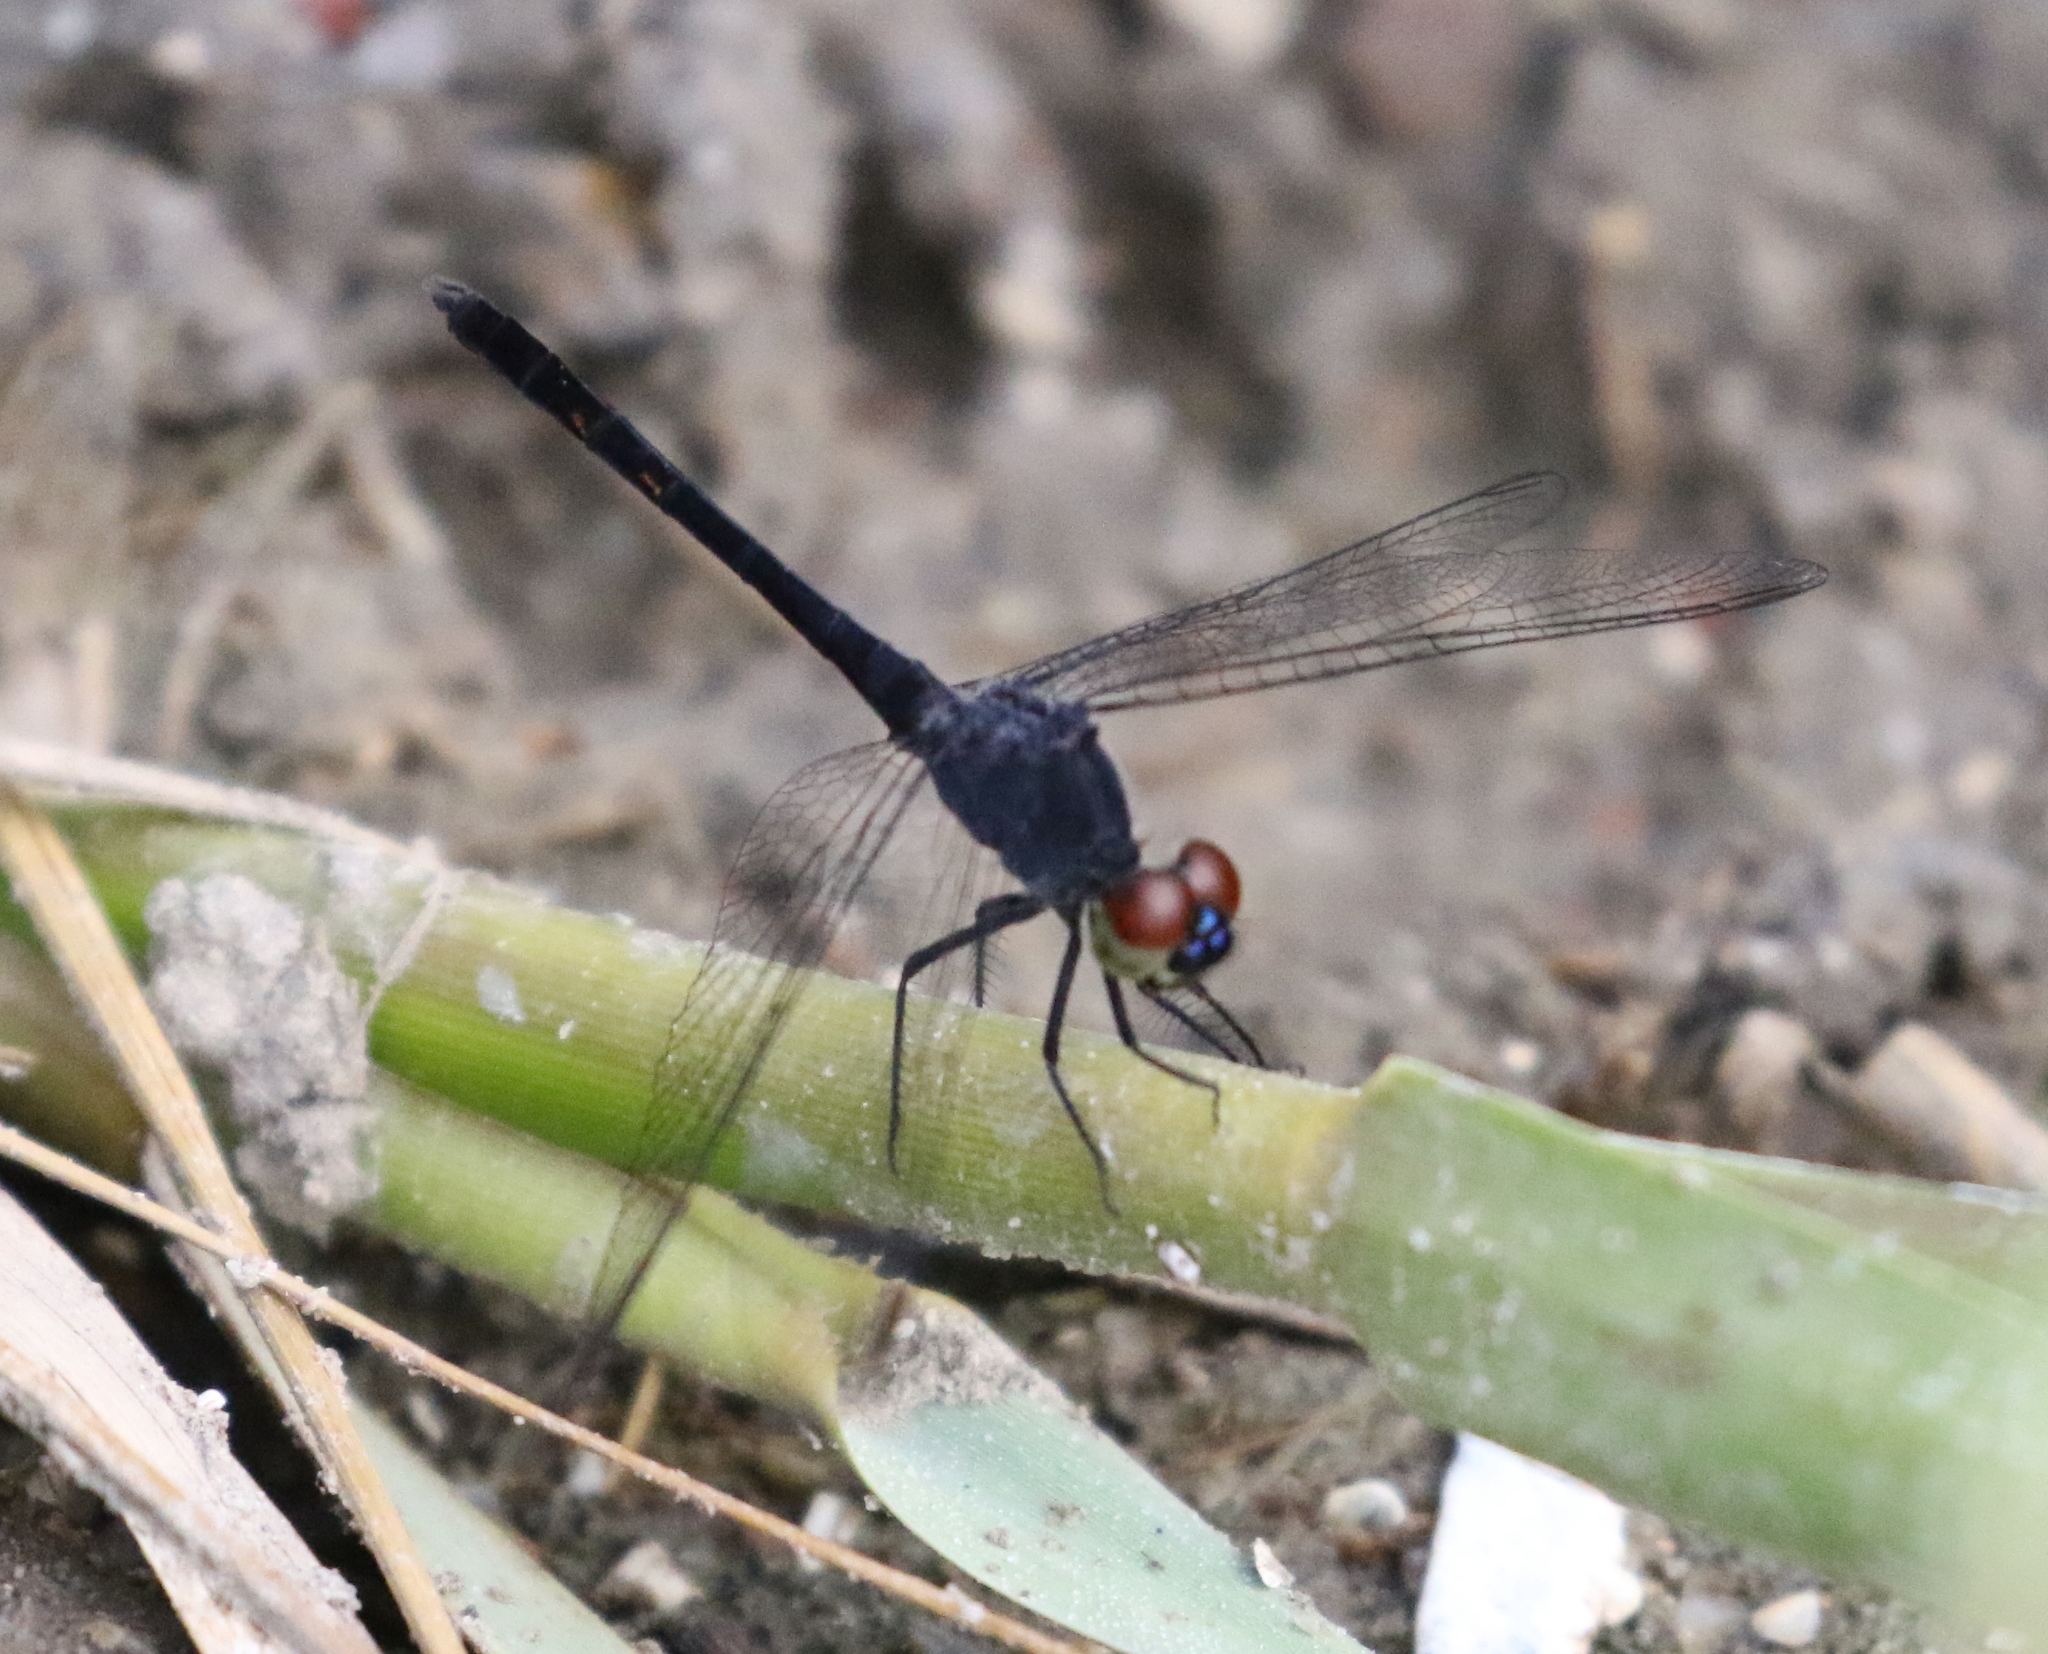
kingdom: Animalia
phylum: Arthropoda
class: Insecta
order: Odonata
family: Libellulidae
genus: Erythrodiplax
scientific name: Erythrodiplax berenice
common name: Seaside dragonlet
